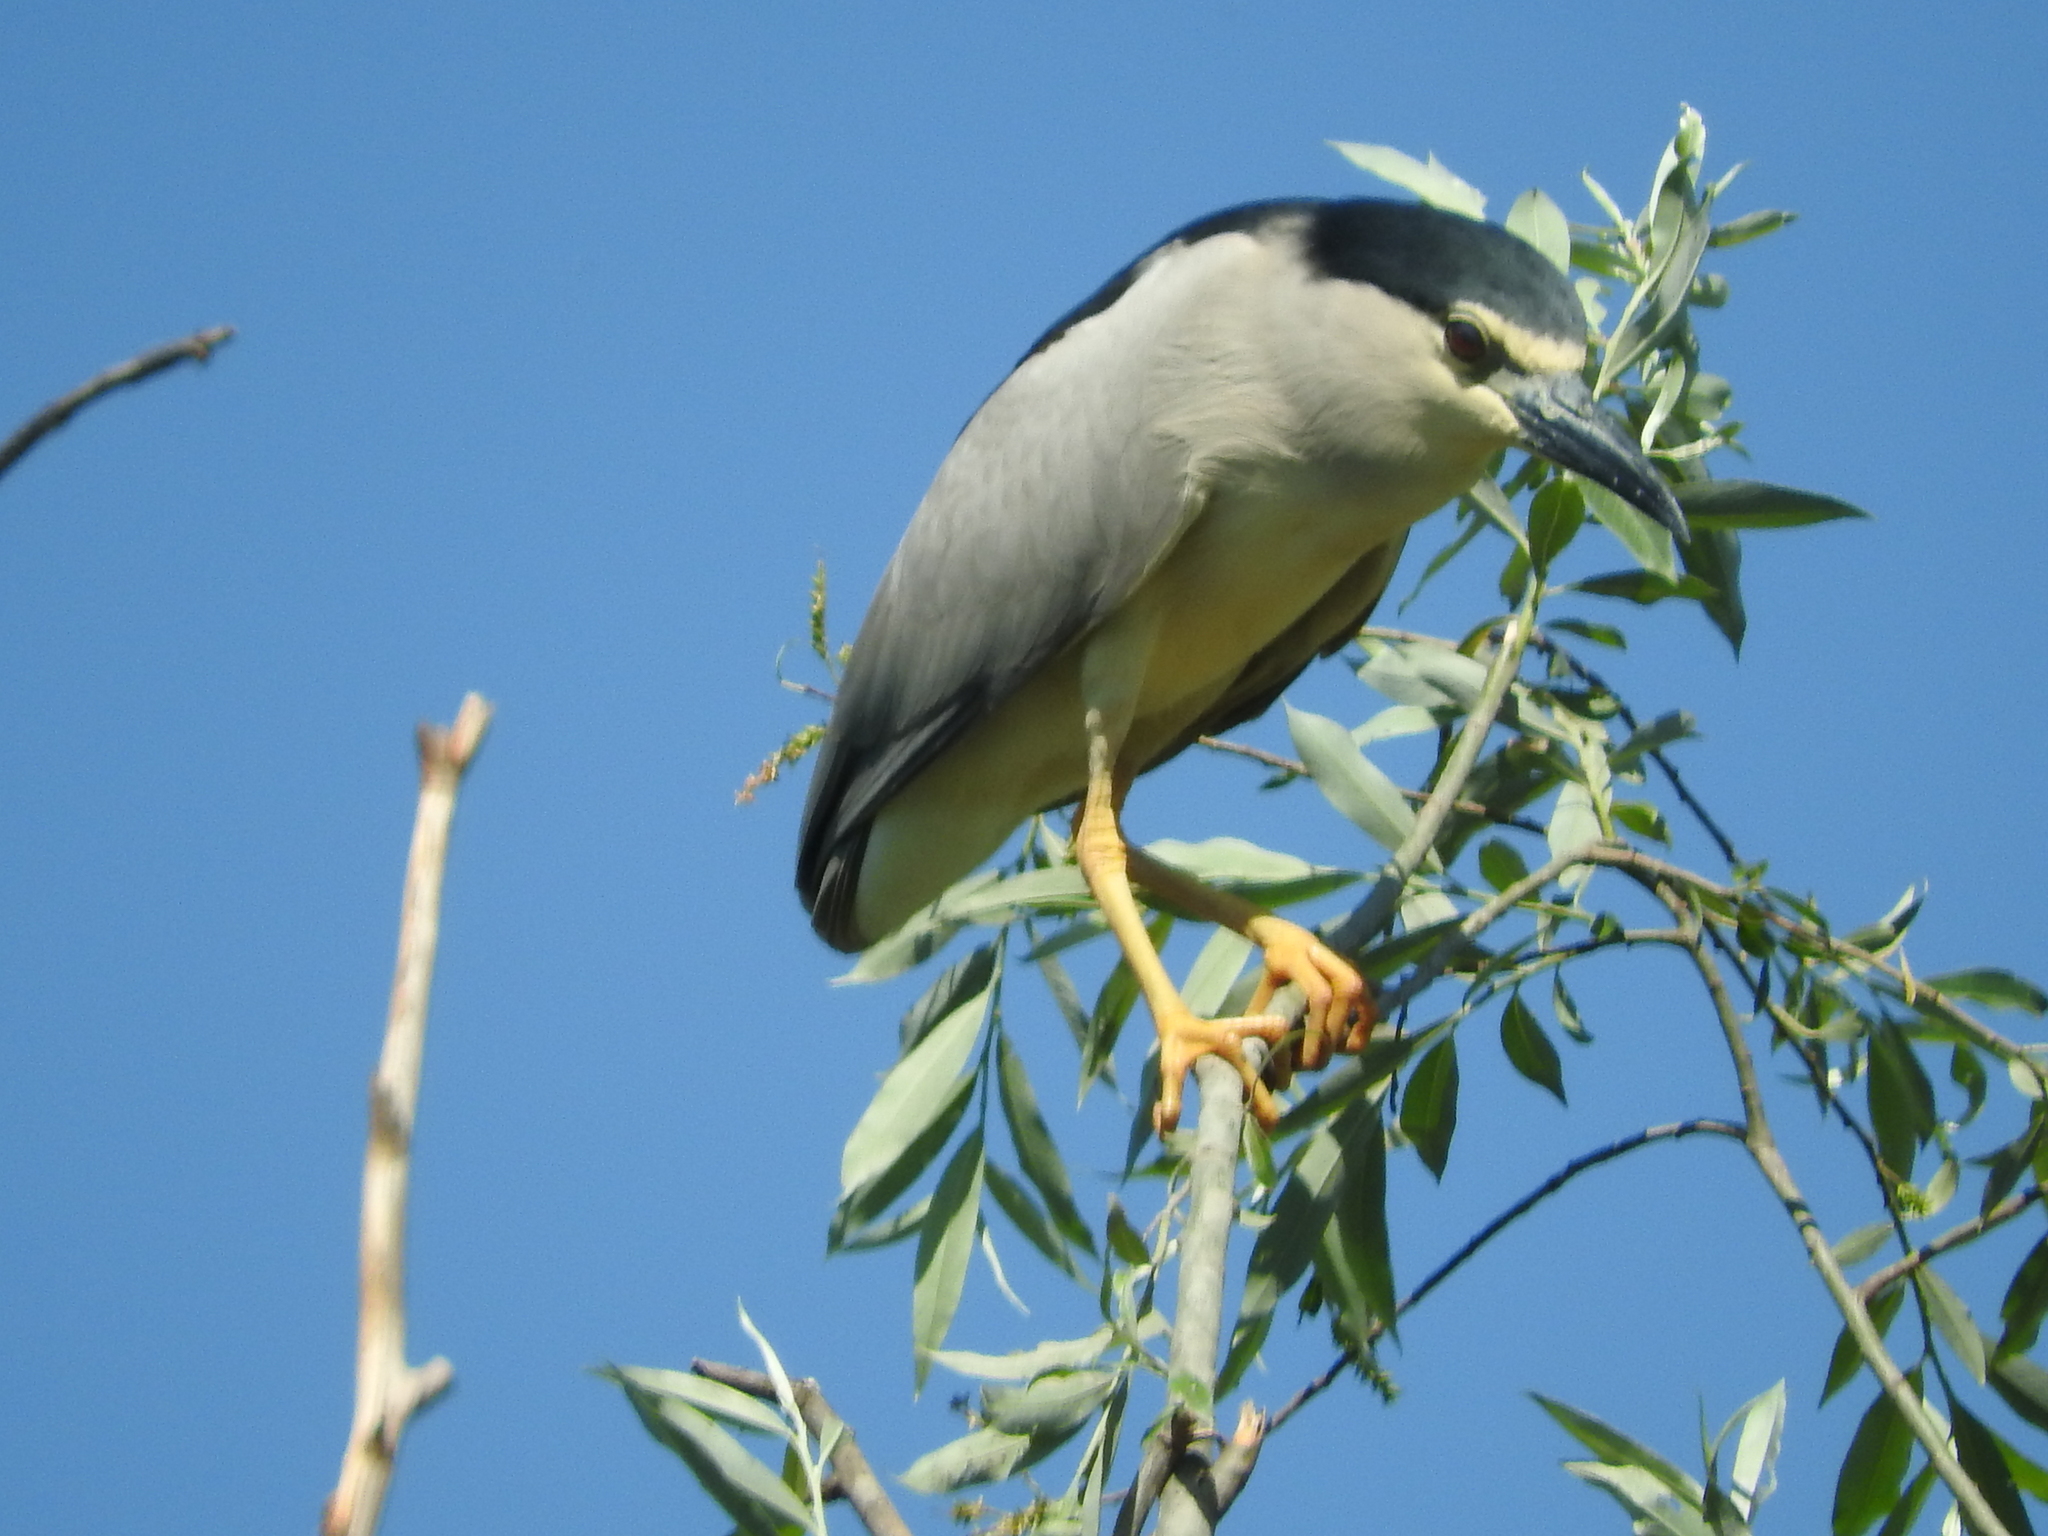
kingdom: Animalia
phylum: Chordata
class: Aves
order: Pelecaniformes
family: Ardeidae
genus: Nycticorax
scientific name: Nycticorax nycticorax
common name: Black-crowned night heron
